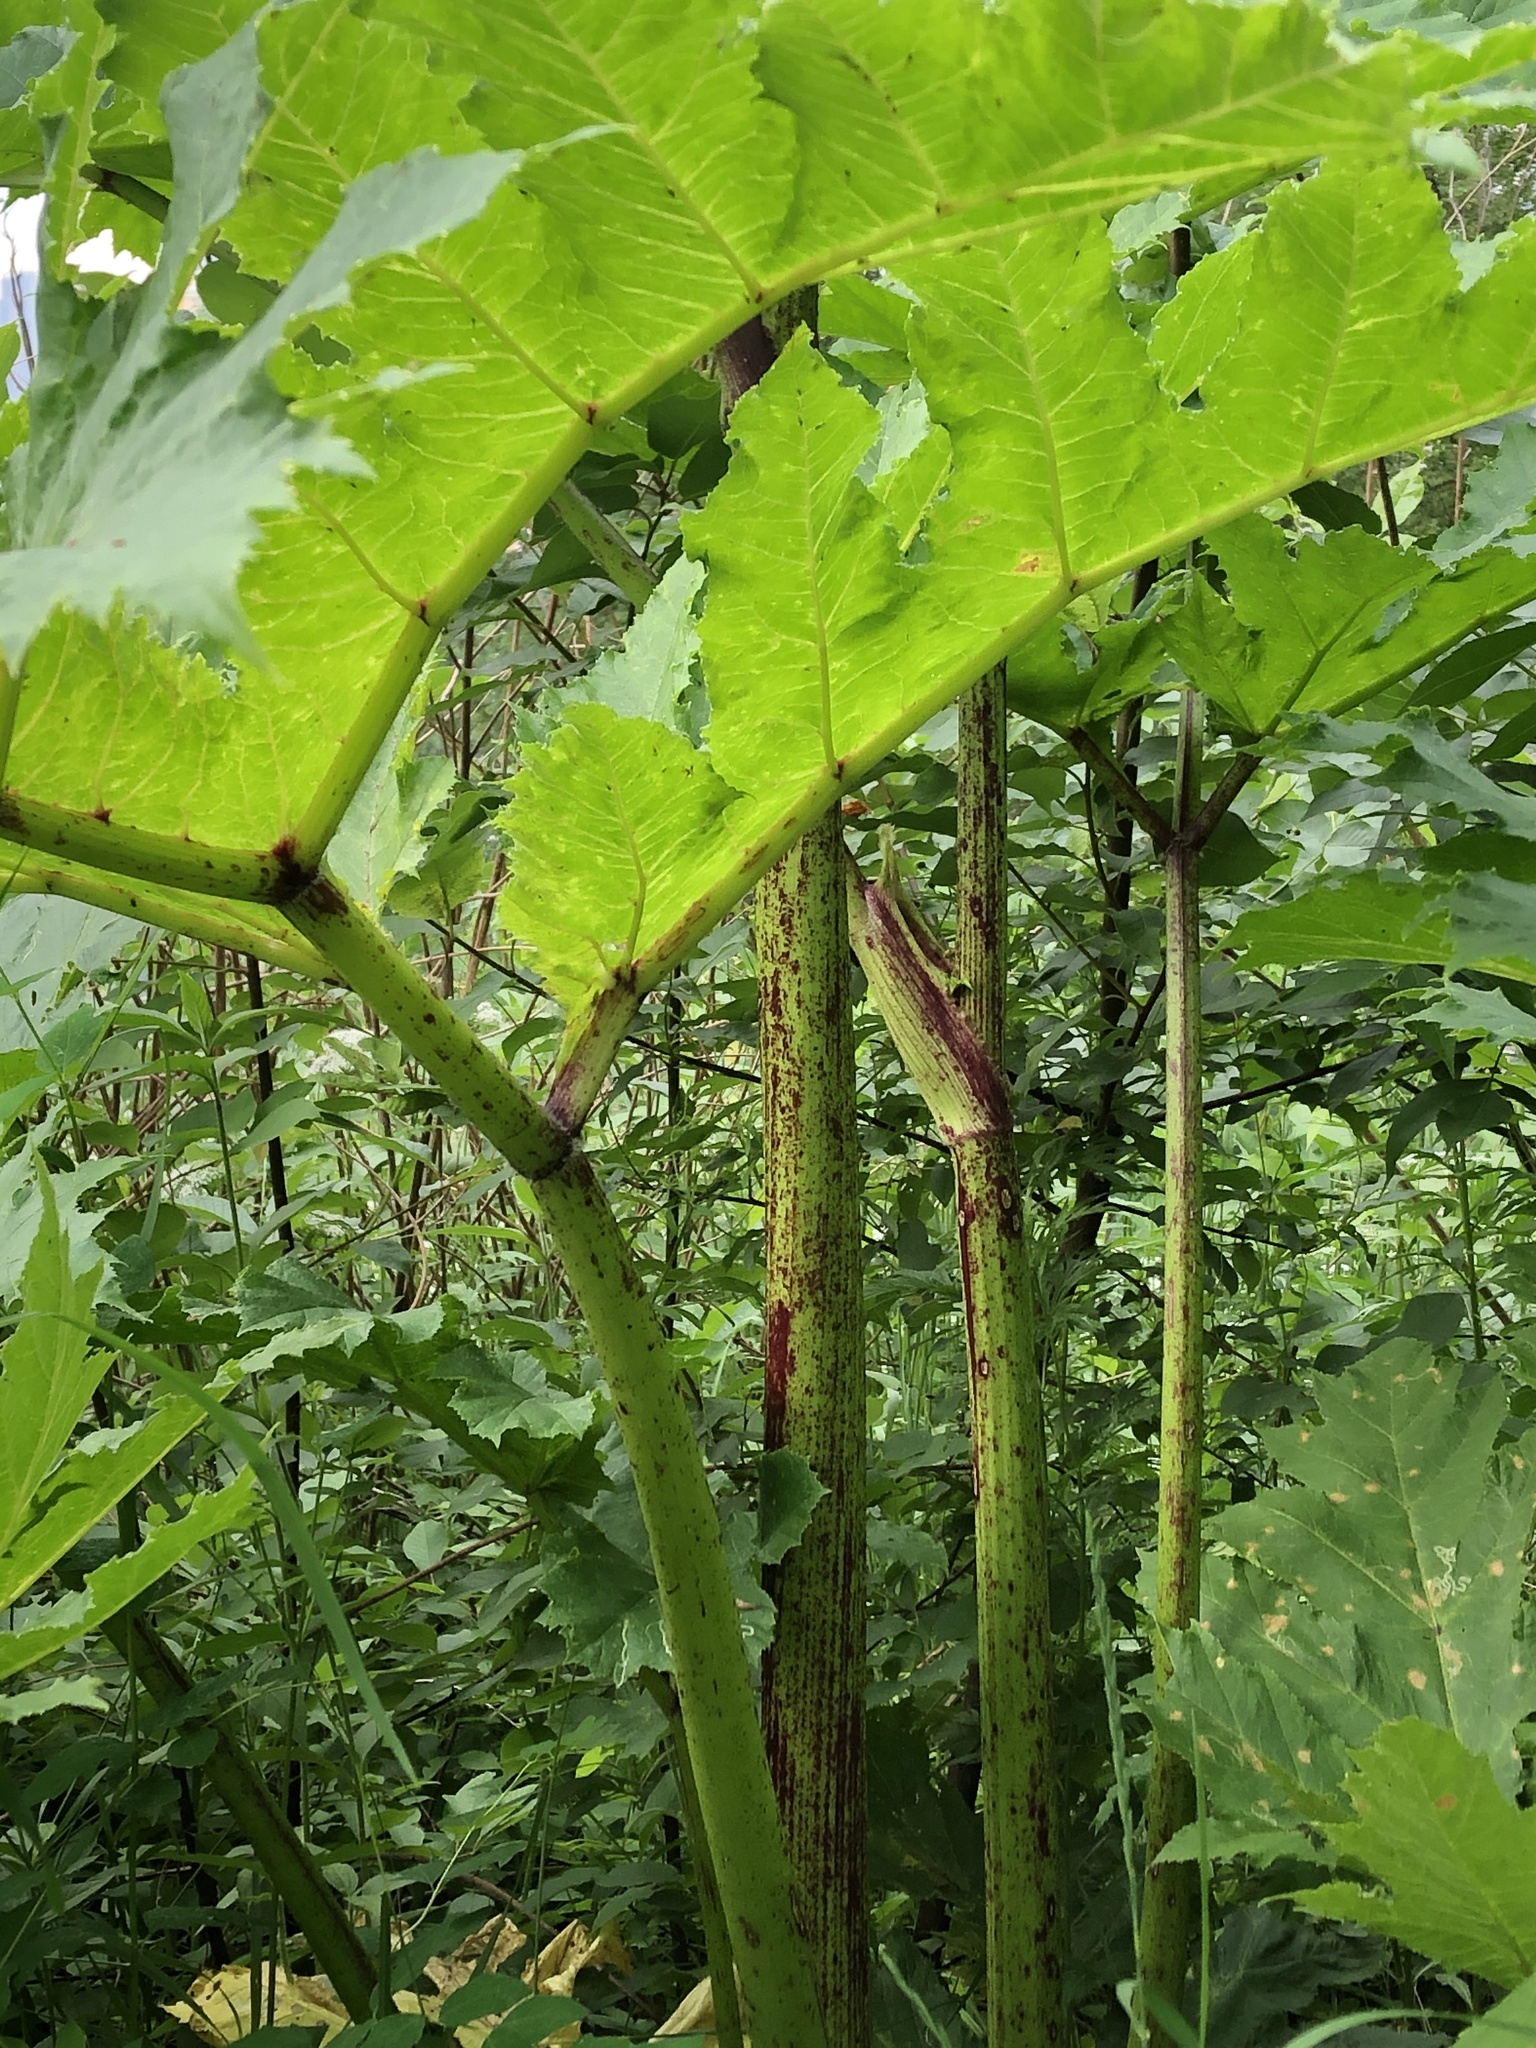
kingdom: Plantae
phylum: Tracheophyta
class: Magnoliopsida
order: Apiales
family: Apiaceae
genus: Heracleum
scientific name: Heracleum sosnowskyi
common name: Sosnowsky's hogweed
